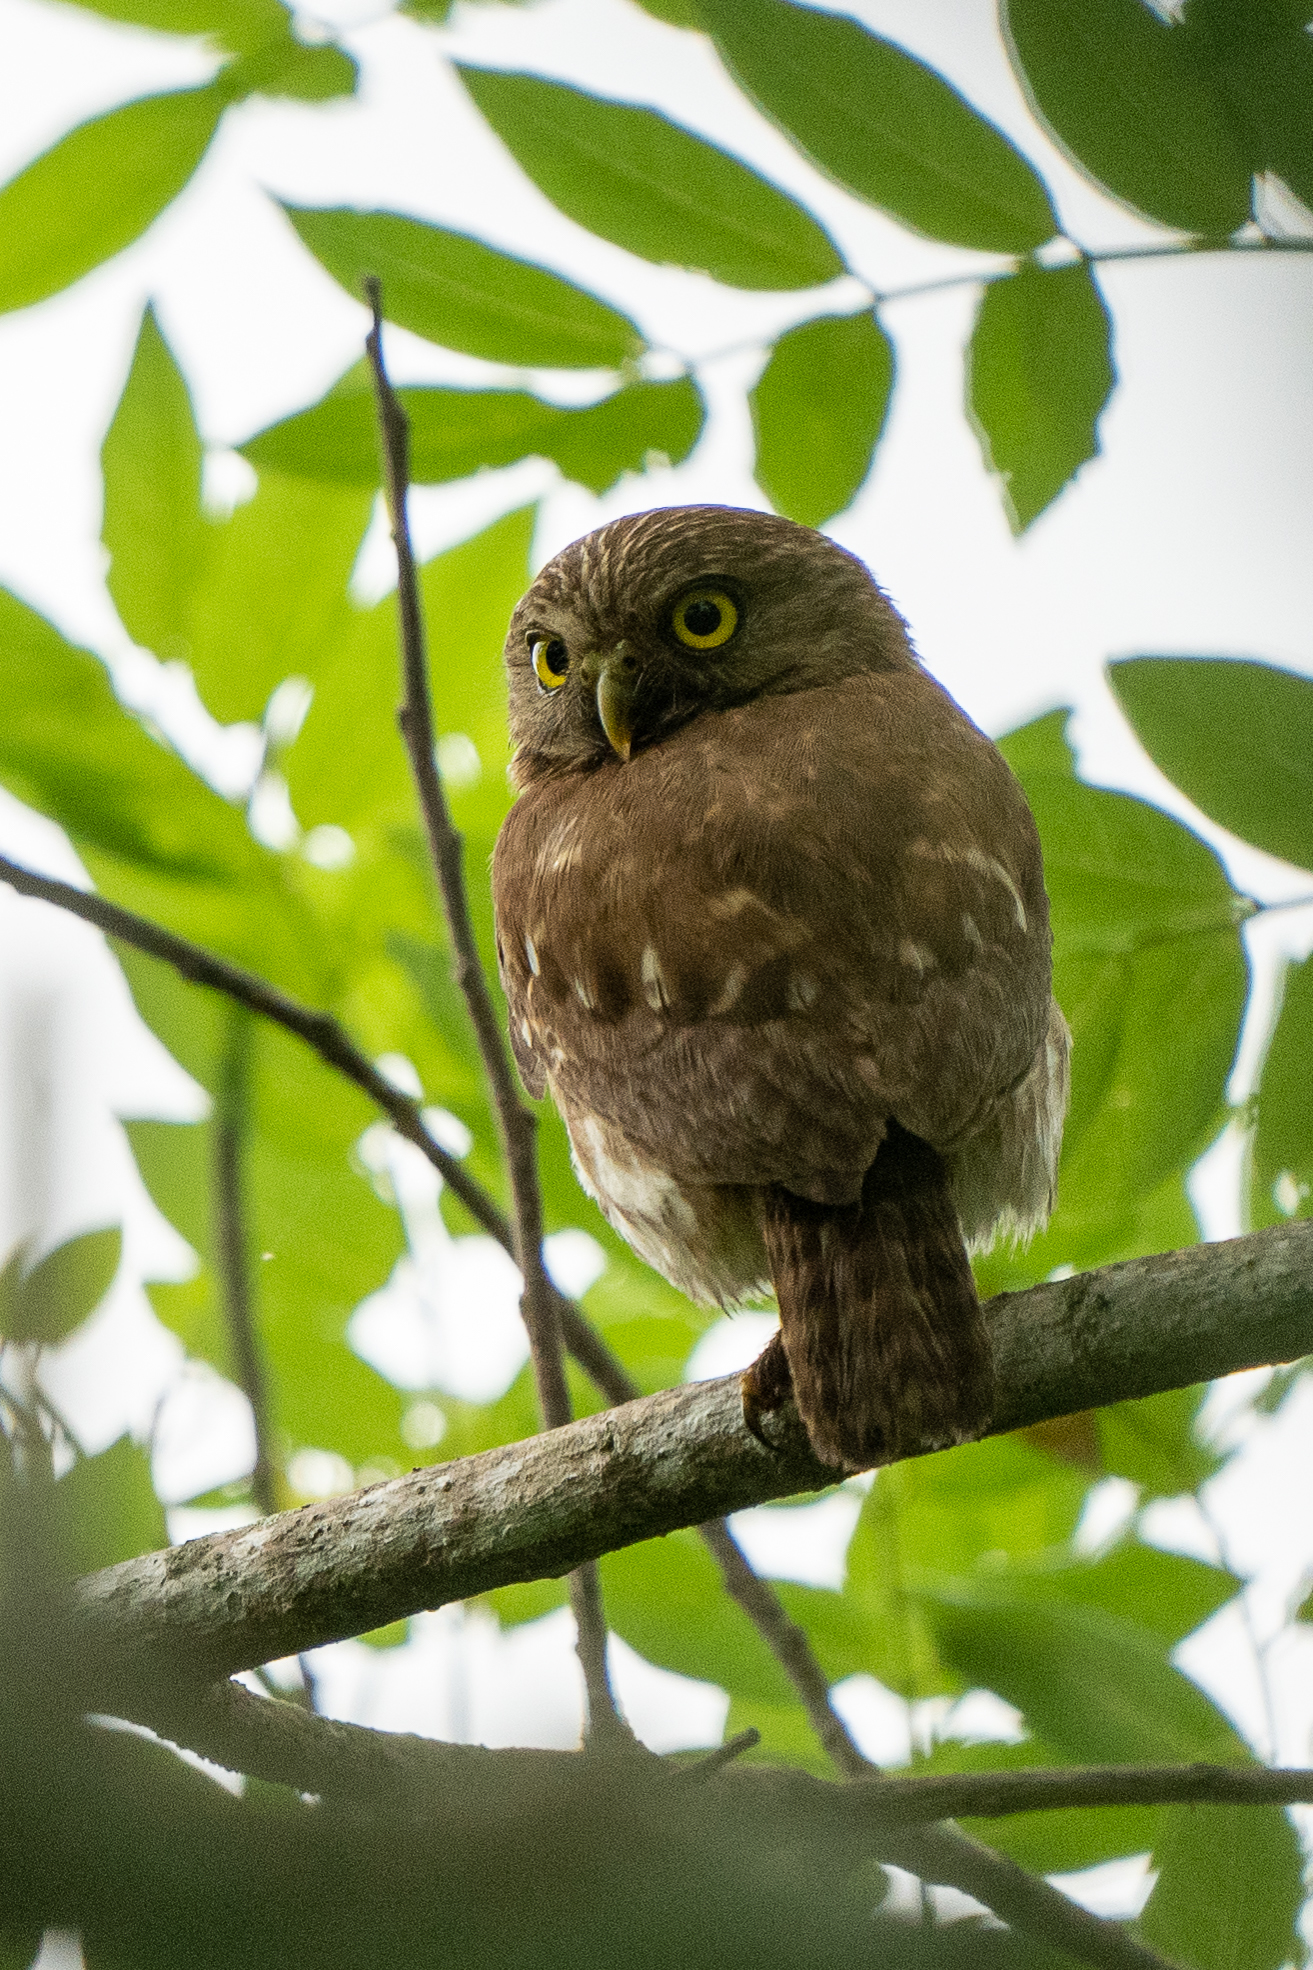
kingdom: Animalia
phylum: Chordata
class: Aves
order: Strigiformes
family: Strigidae
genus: Glaucidium
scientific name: Glaucidium brasilianum
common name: Ferruginous pygmy-owl
